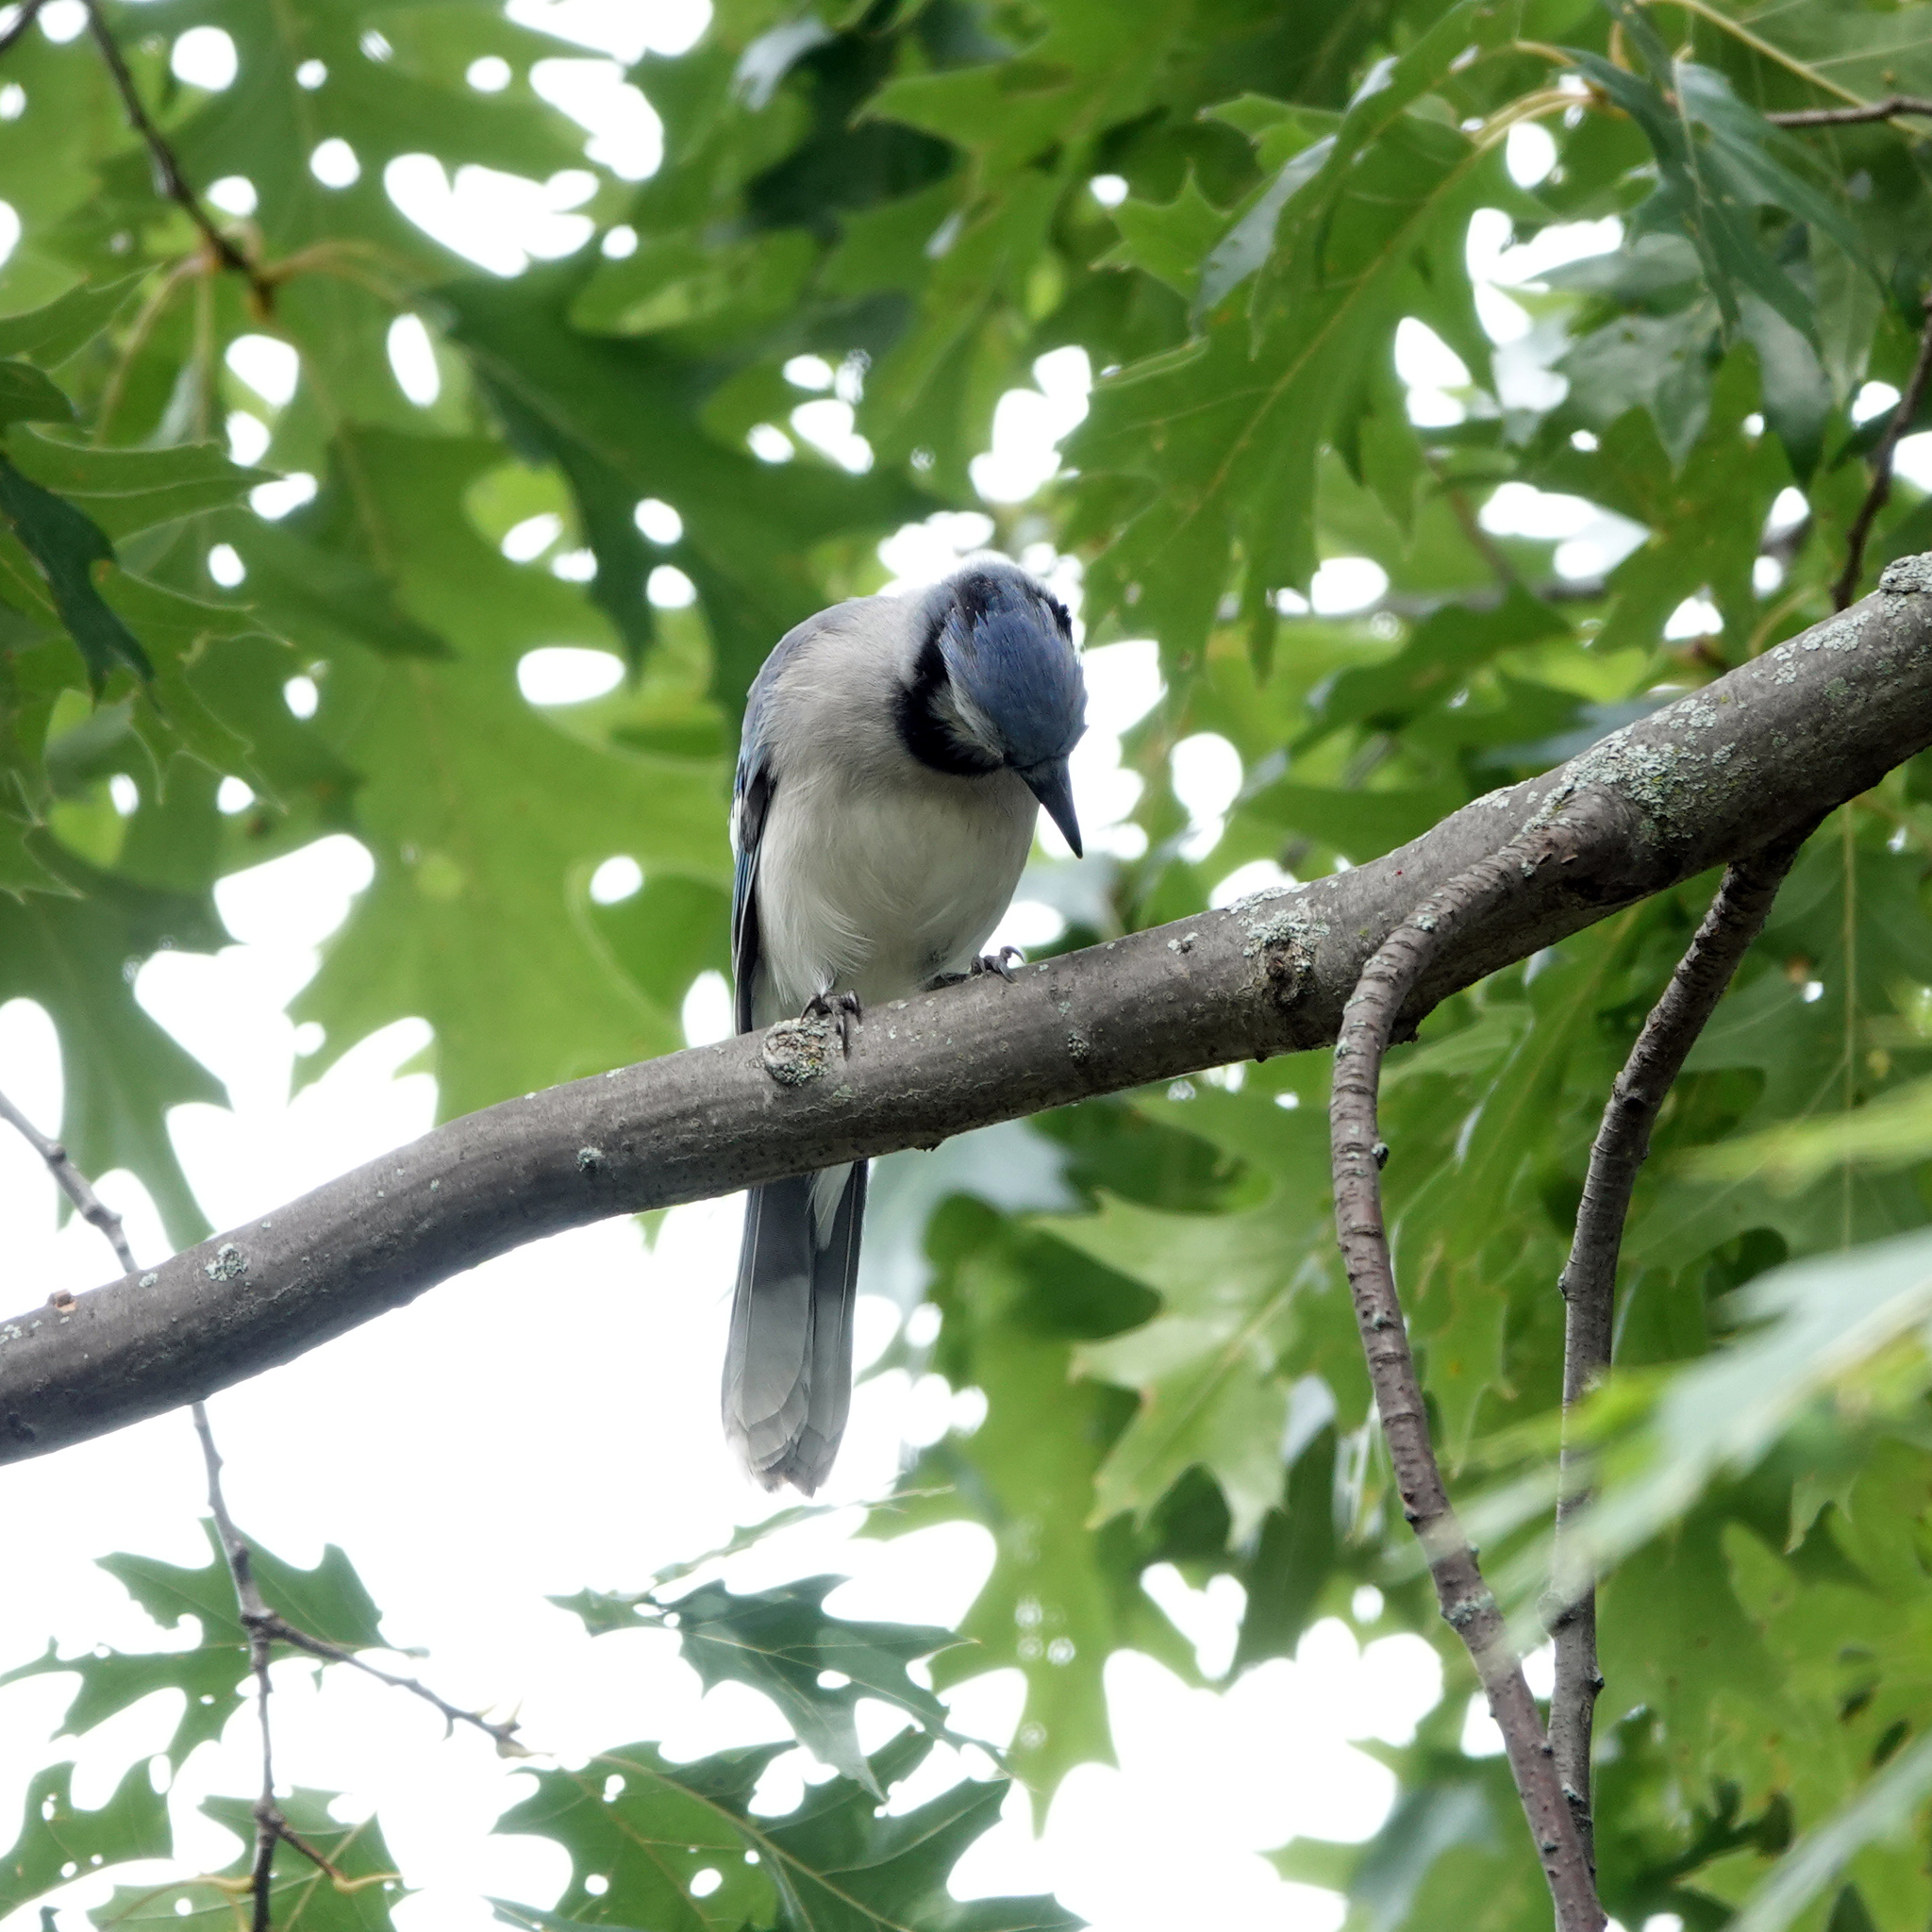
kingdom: Animalia
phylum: Chordata
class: Aves
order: Passeriformes
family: Corvidae
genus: Cyanocitta
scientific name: Cyanocitta cristata
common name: Blue jay
